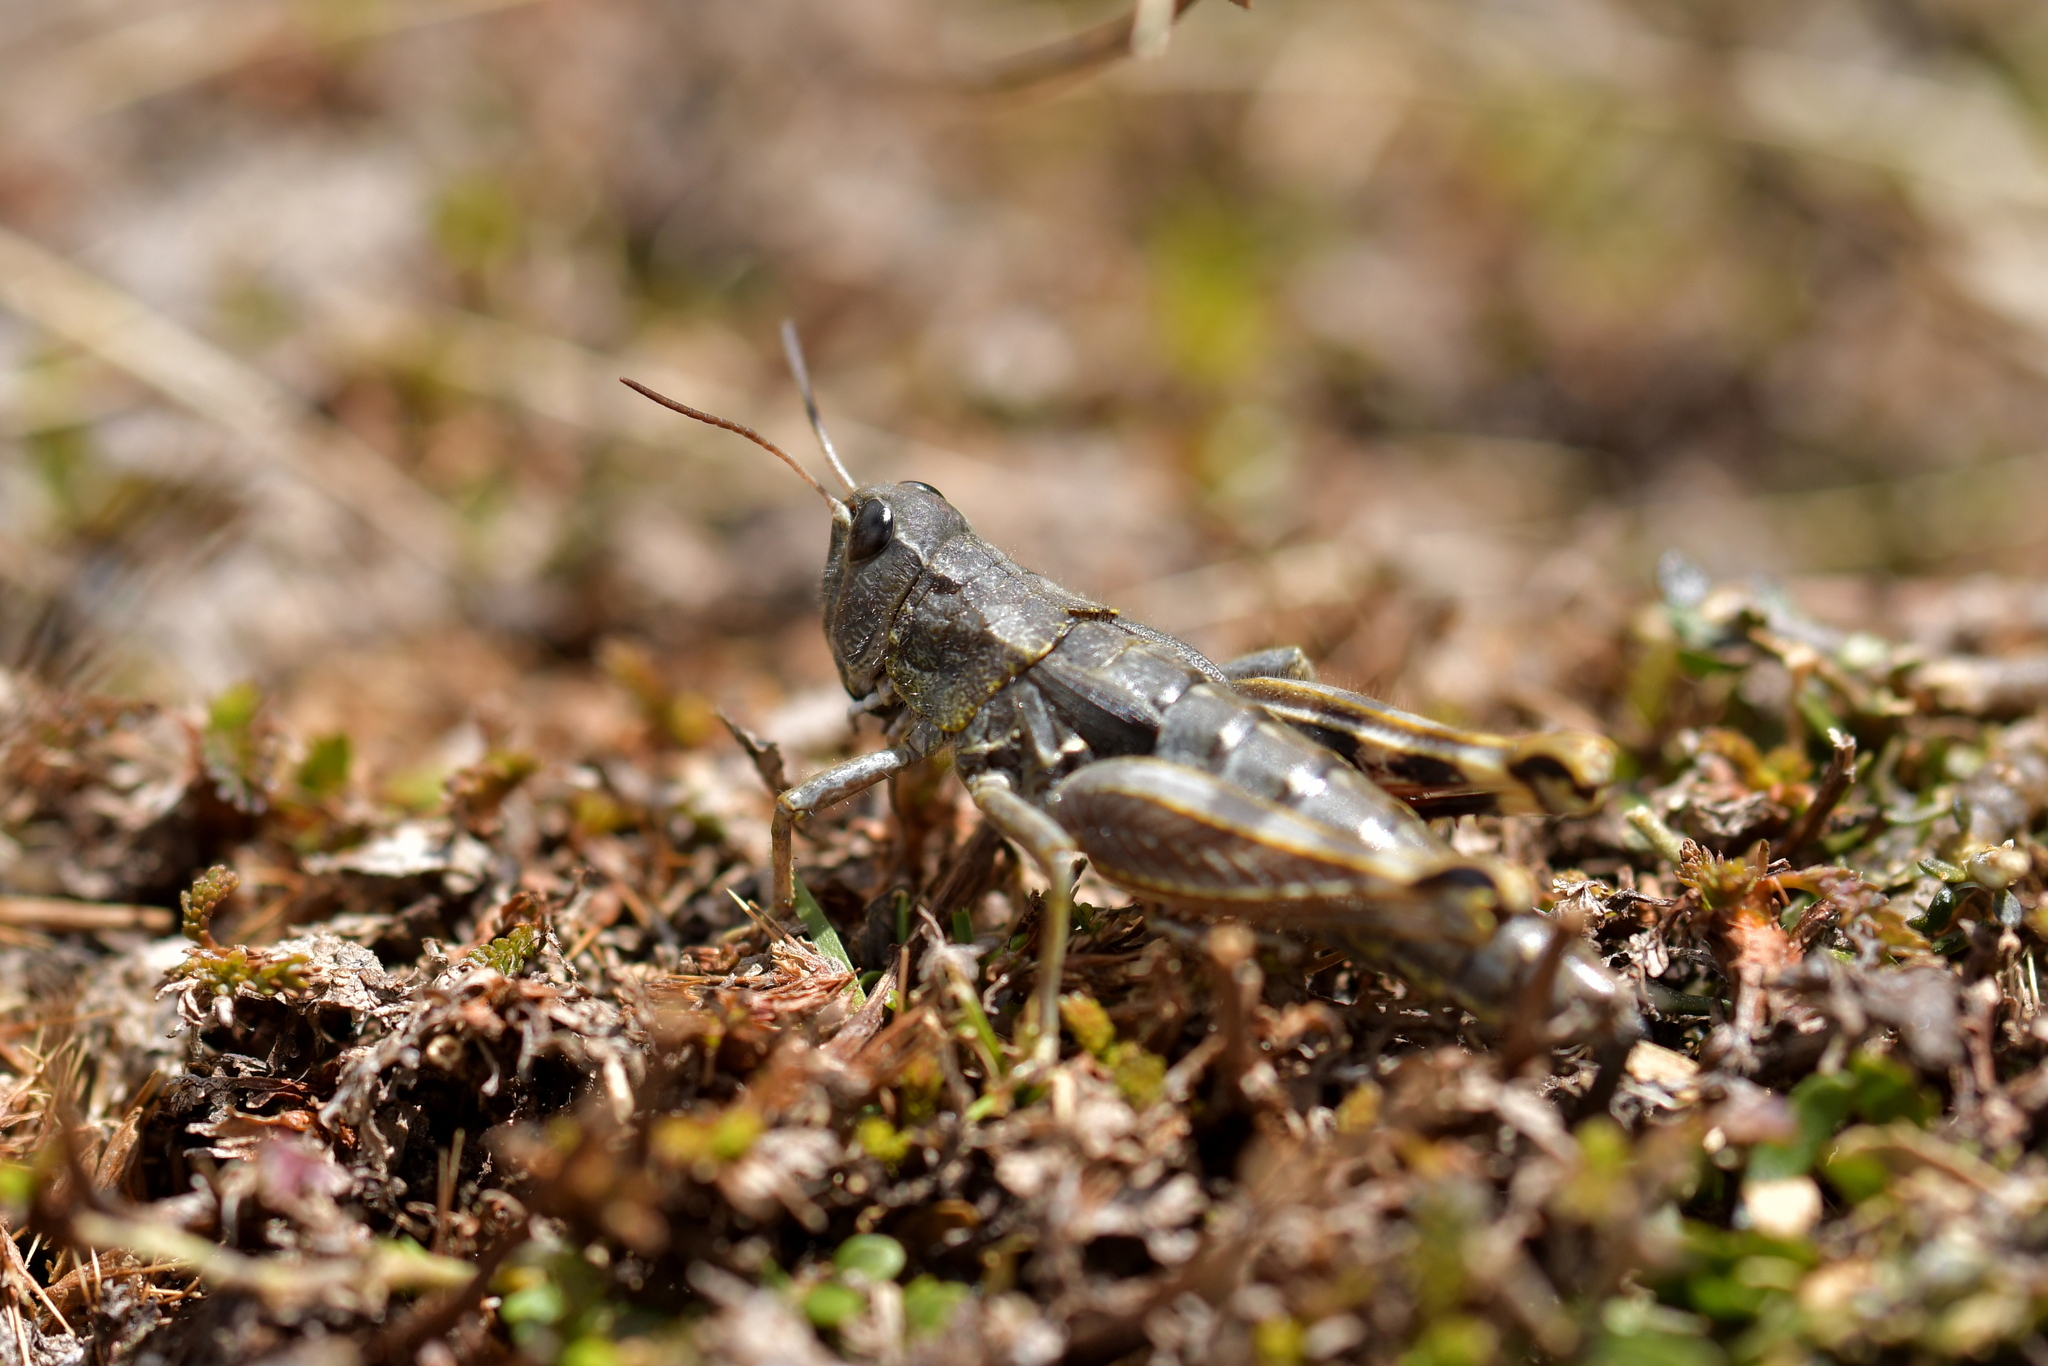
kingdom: Animalia
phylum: Arthropoda
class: Insecta
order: Orthoptera
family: Acrididae
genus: Sigaus
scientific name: Sigaus australis
